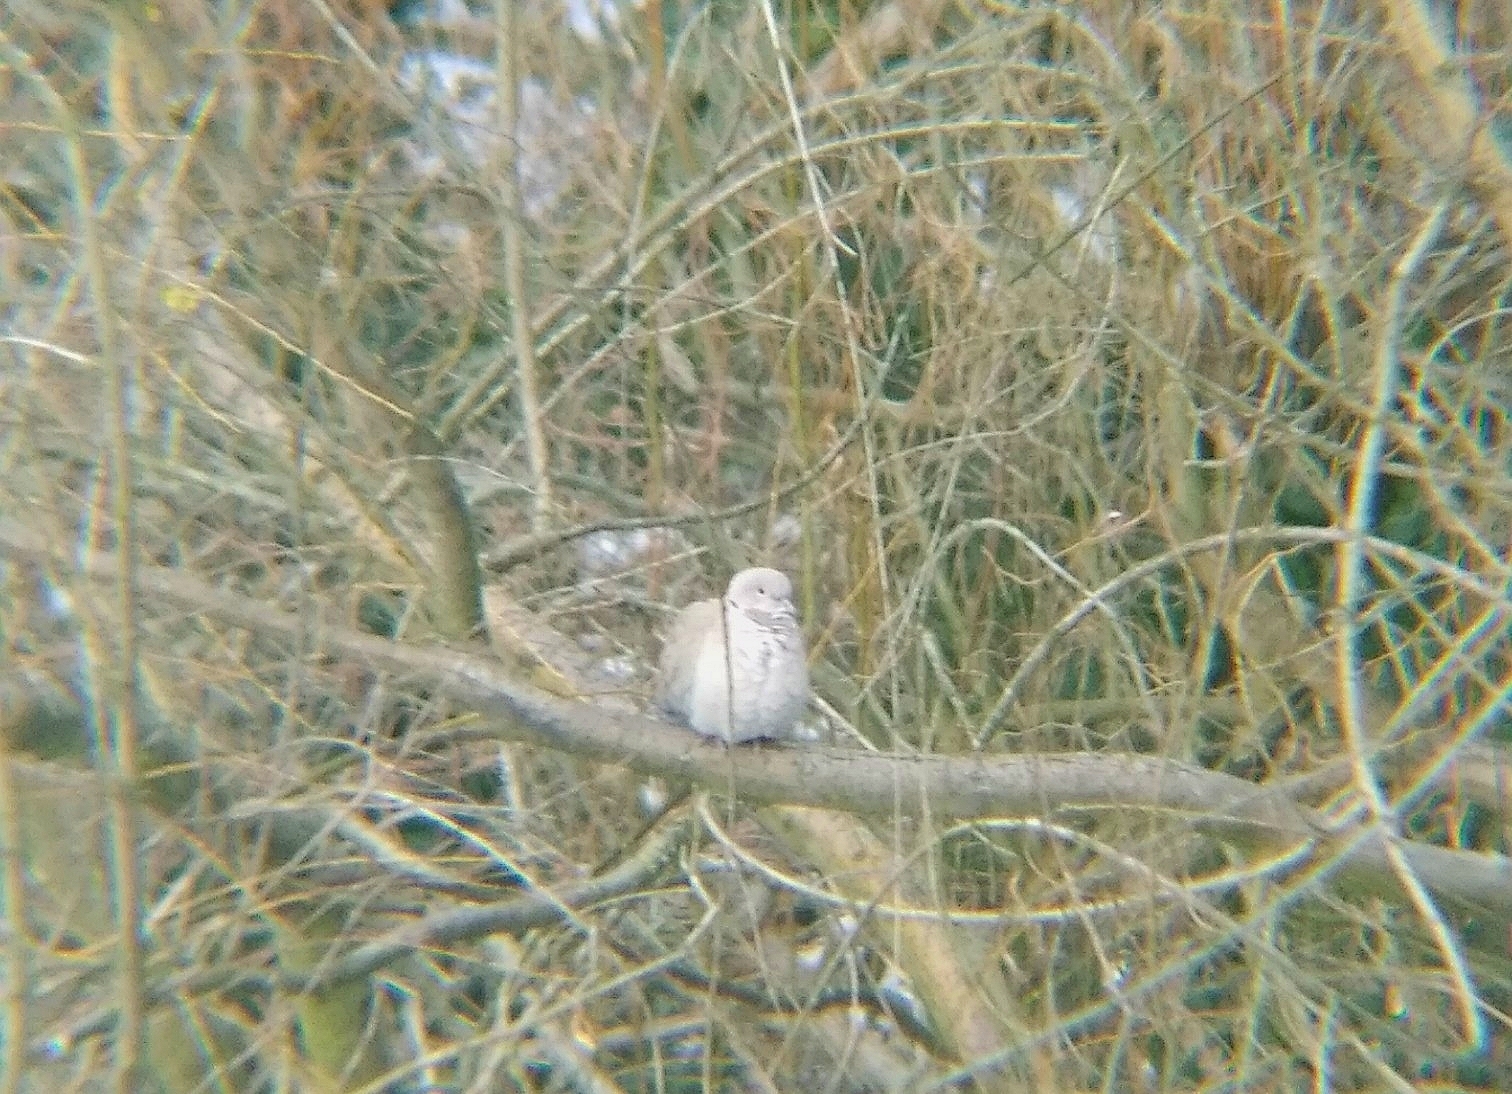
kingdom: Animalia
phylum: Chordata
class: Aves
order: Columbiformes
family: Columbidae
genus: Streptopelia
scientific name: Streptopelia decaocto
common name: Eurasian collared dove
